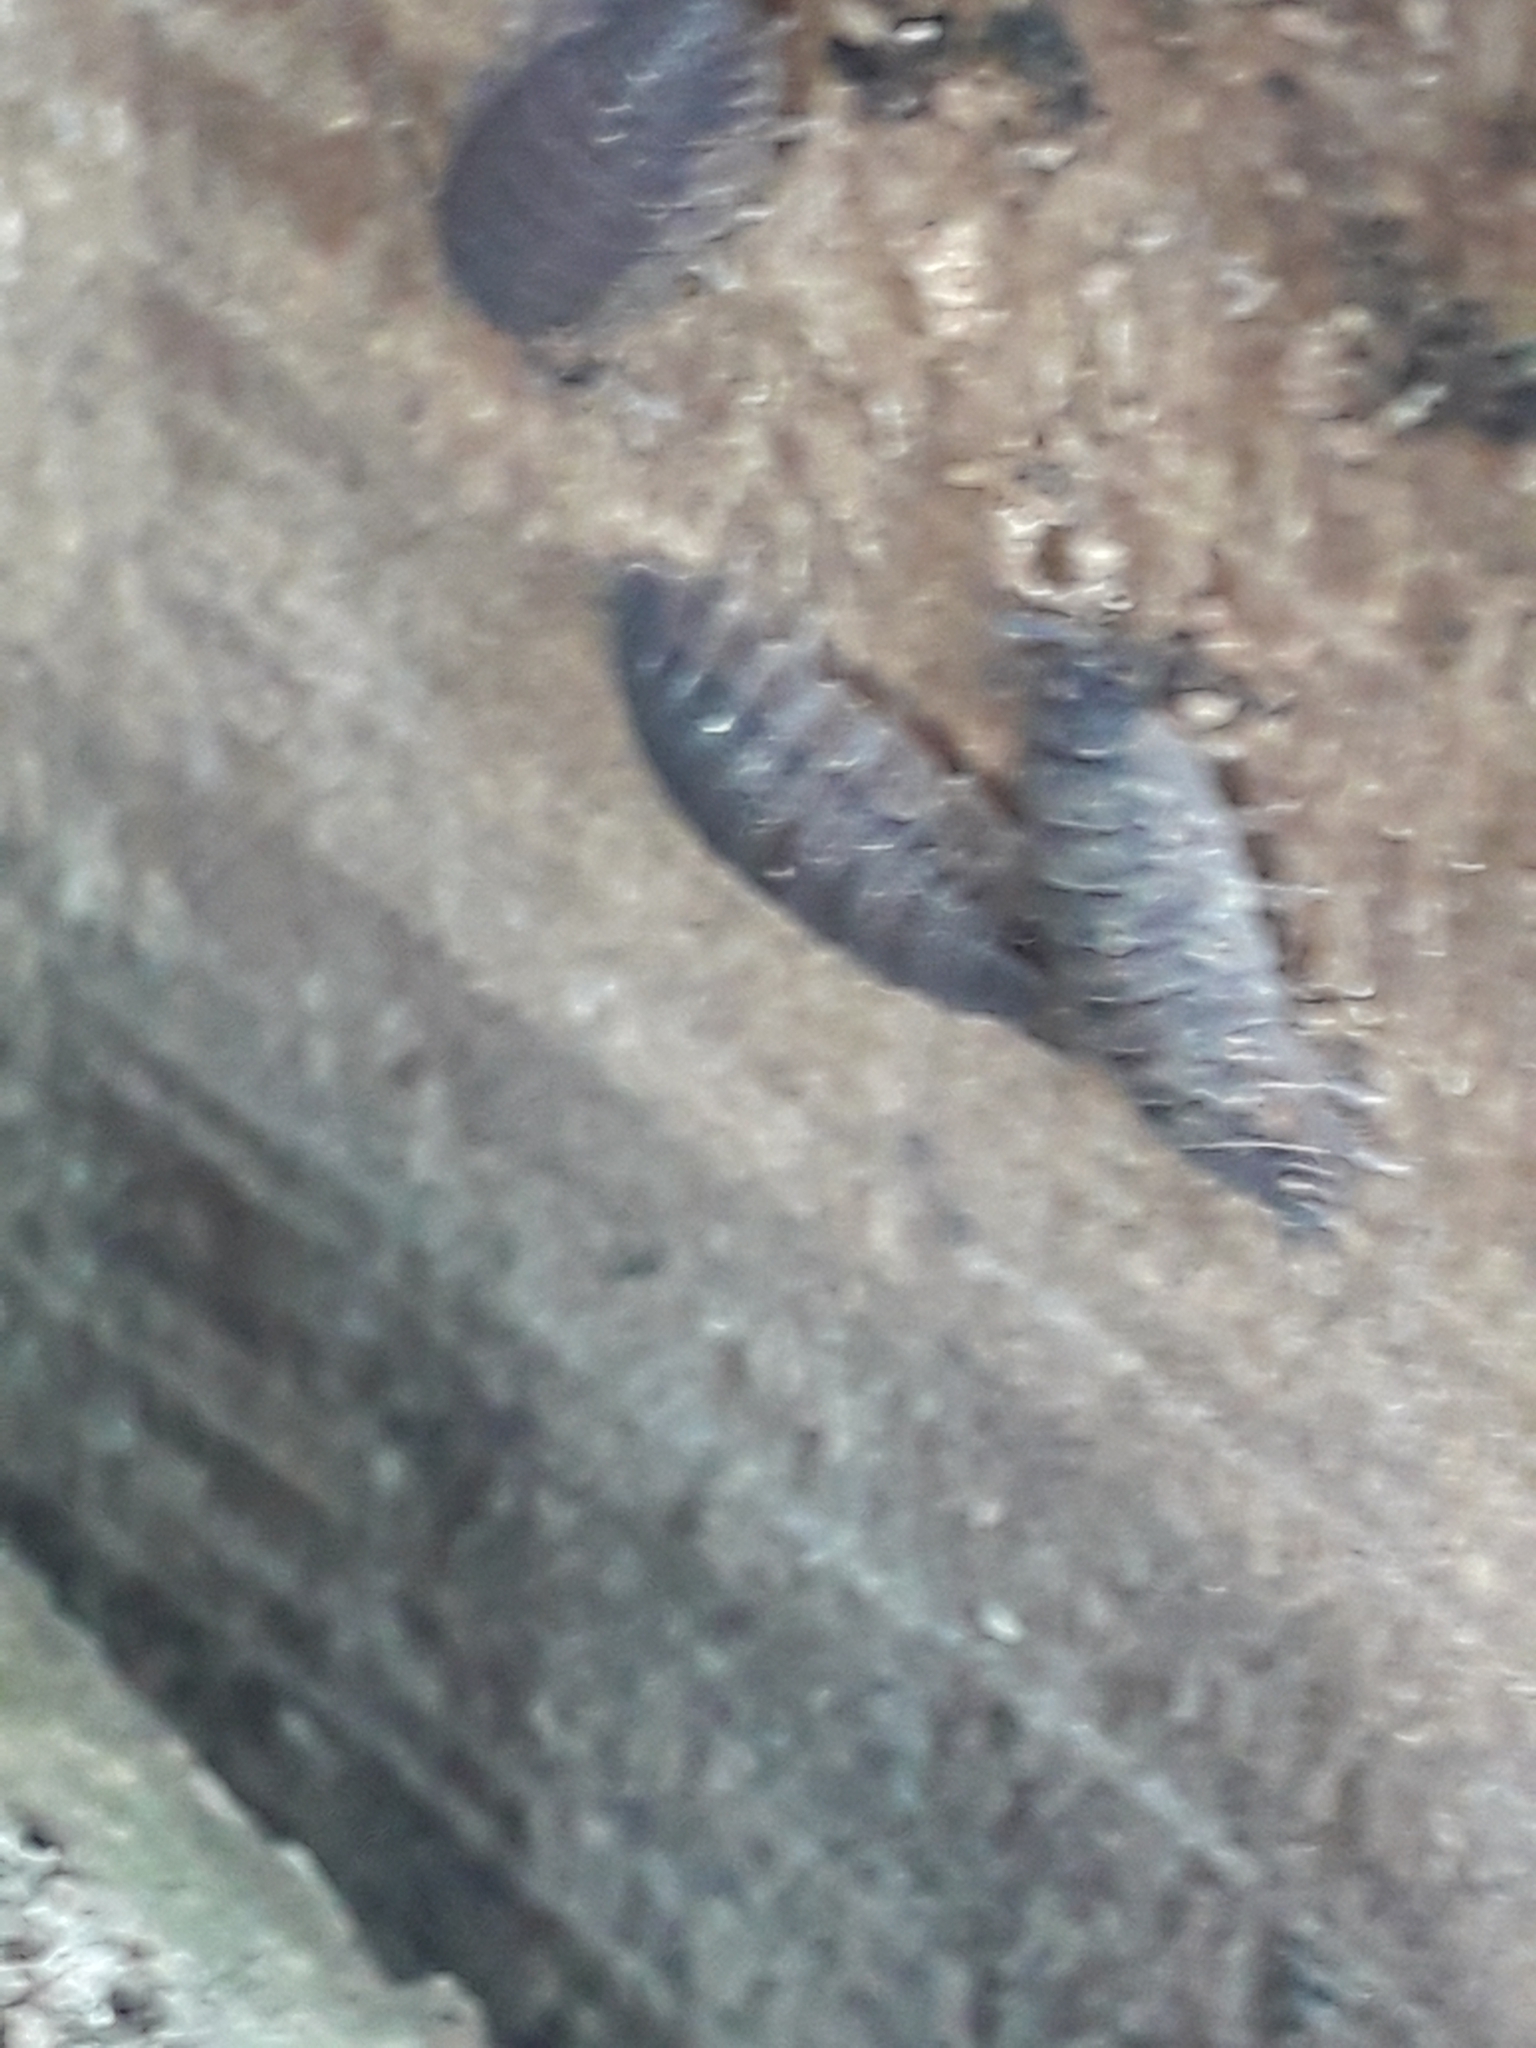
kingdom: Animalia
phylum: Arthropoda
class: Malacostraca
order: Isopoda
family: Porcellionidae
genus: Porcellio
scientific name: Porcellio scaber
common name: Common rough woodlouse
